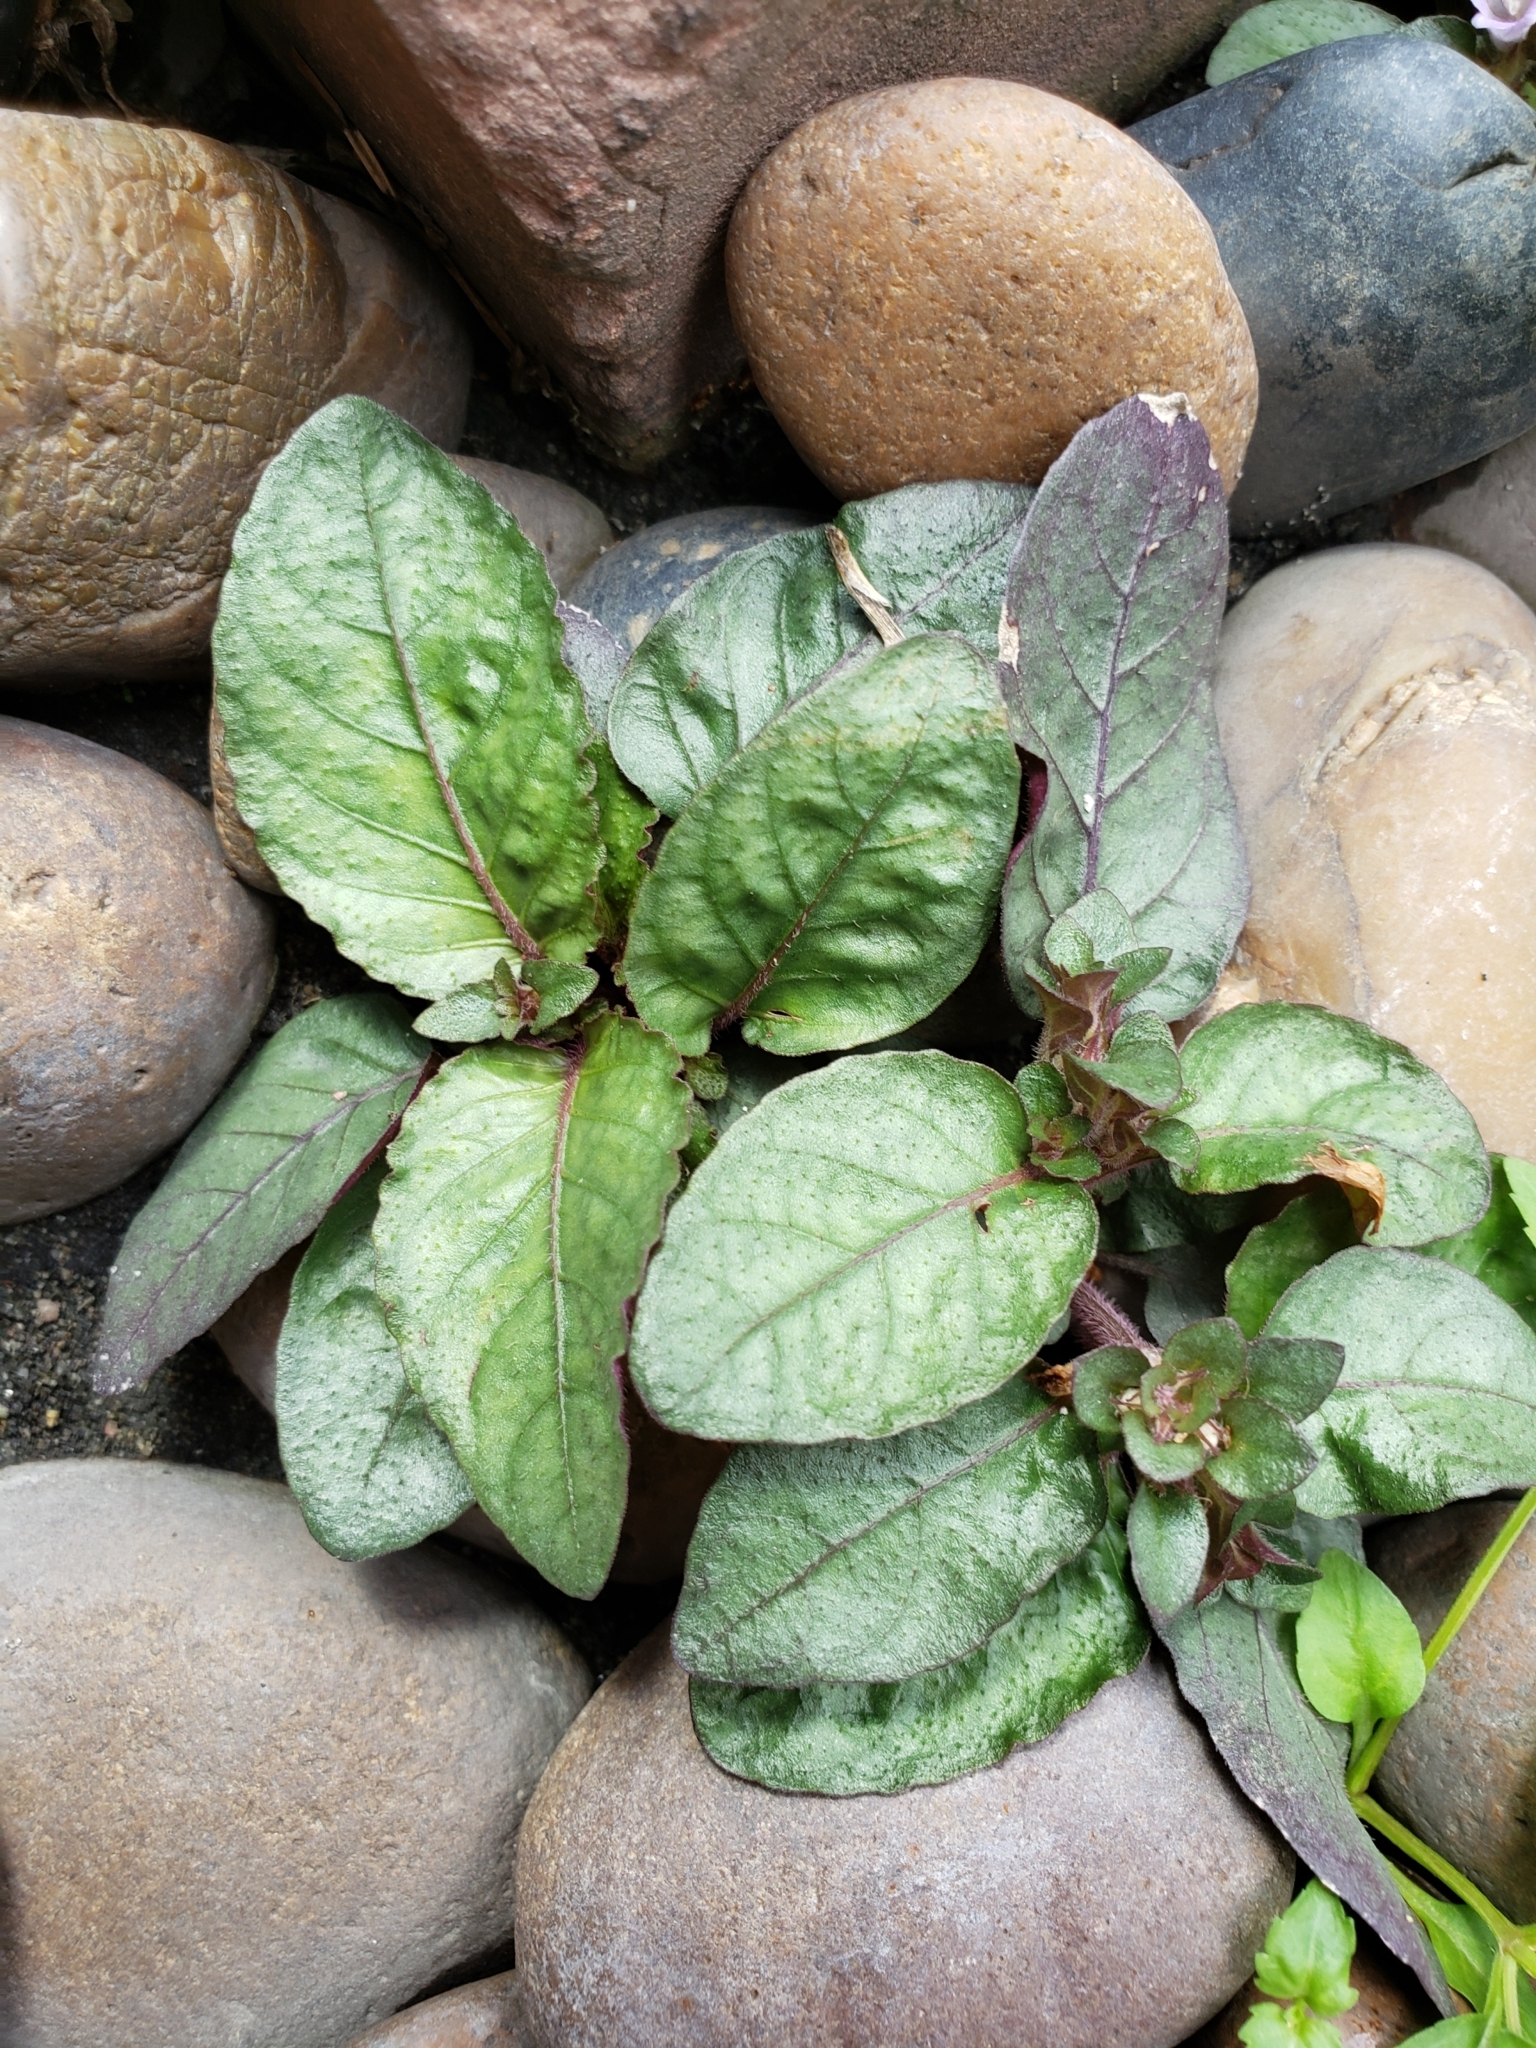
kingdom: Plantae
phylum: Tracheophyta
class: Magnoliopsida
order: Lamiales
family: Acanthaceae
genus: Strobilanthes
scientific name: Strobilanthes reptans
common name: Acanthaceae
